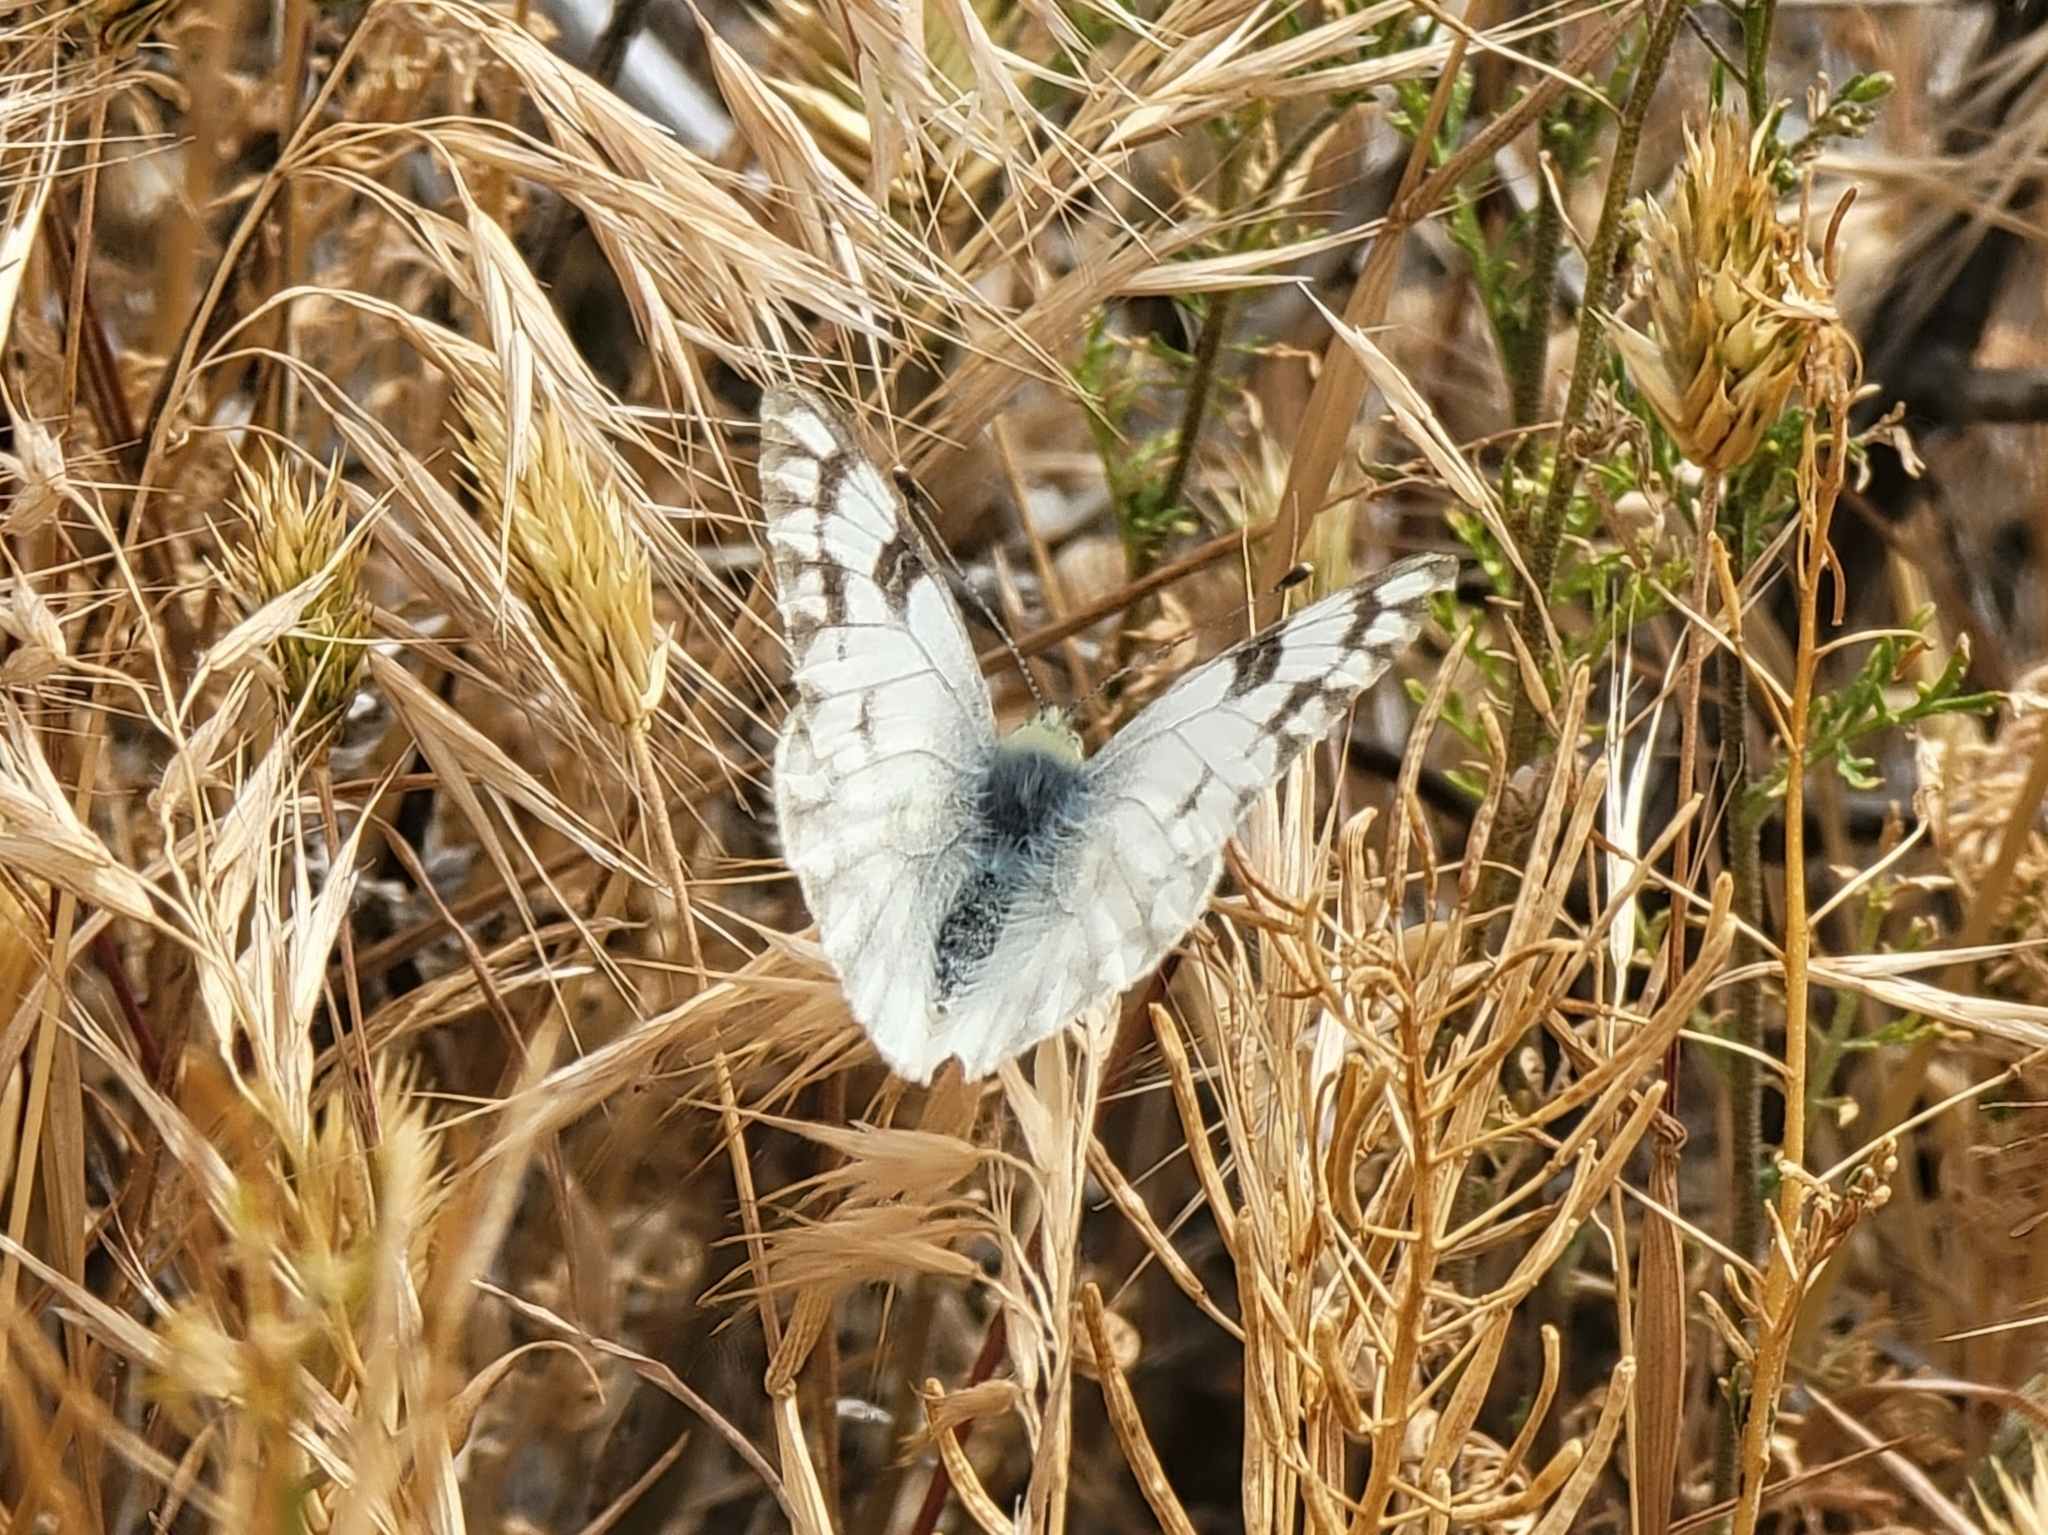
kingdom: Animalia
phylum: Arthropoda
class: Insecta
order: Lepidoptera
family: Pieridae
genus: Pontia
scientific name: Pontia occidentalis
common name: Western white
